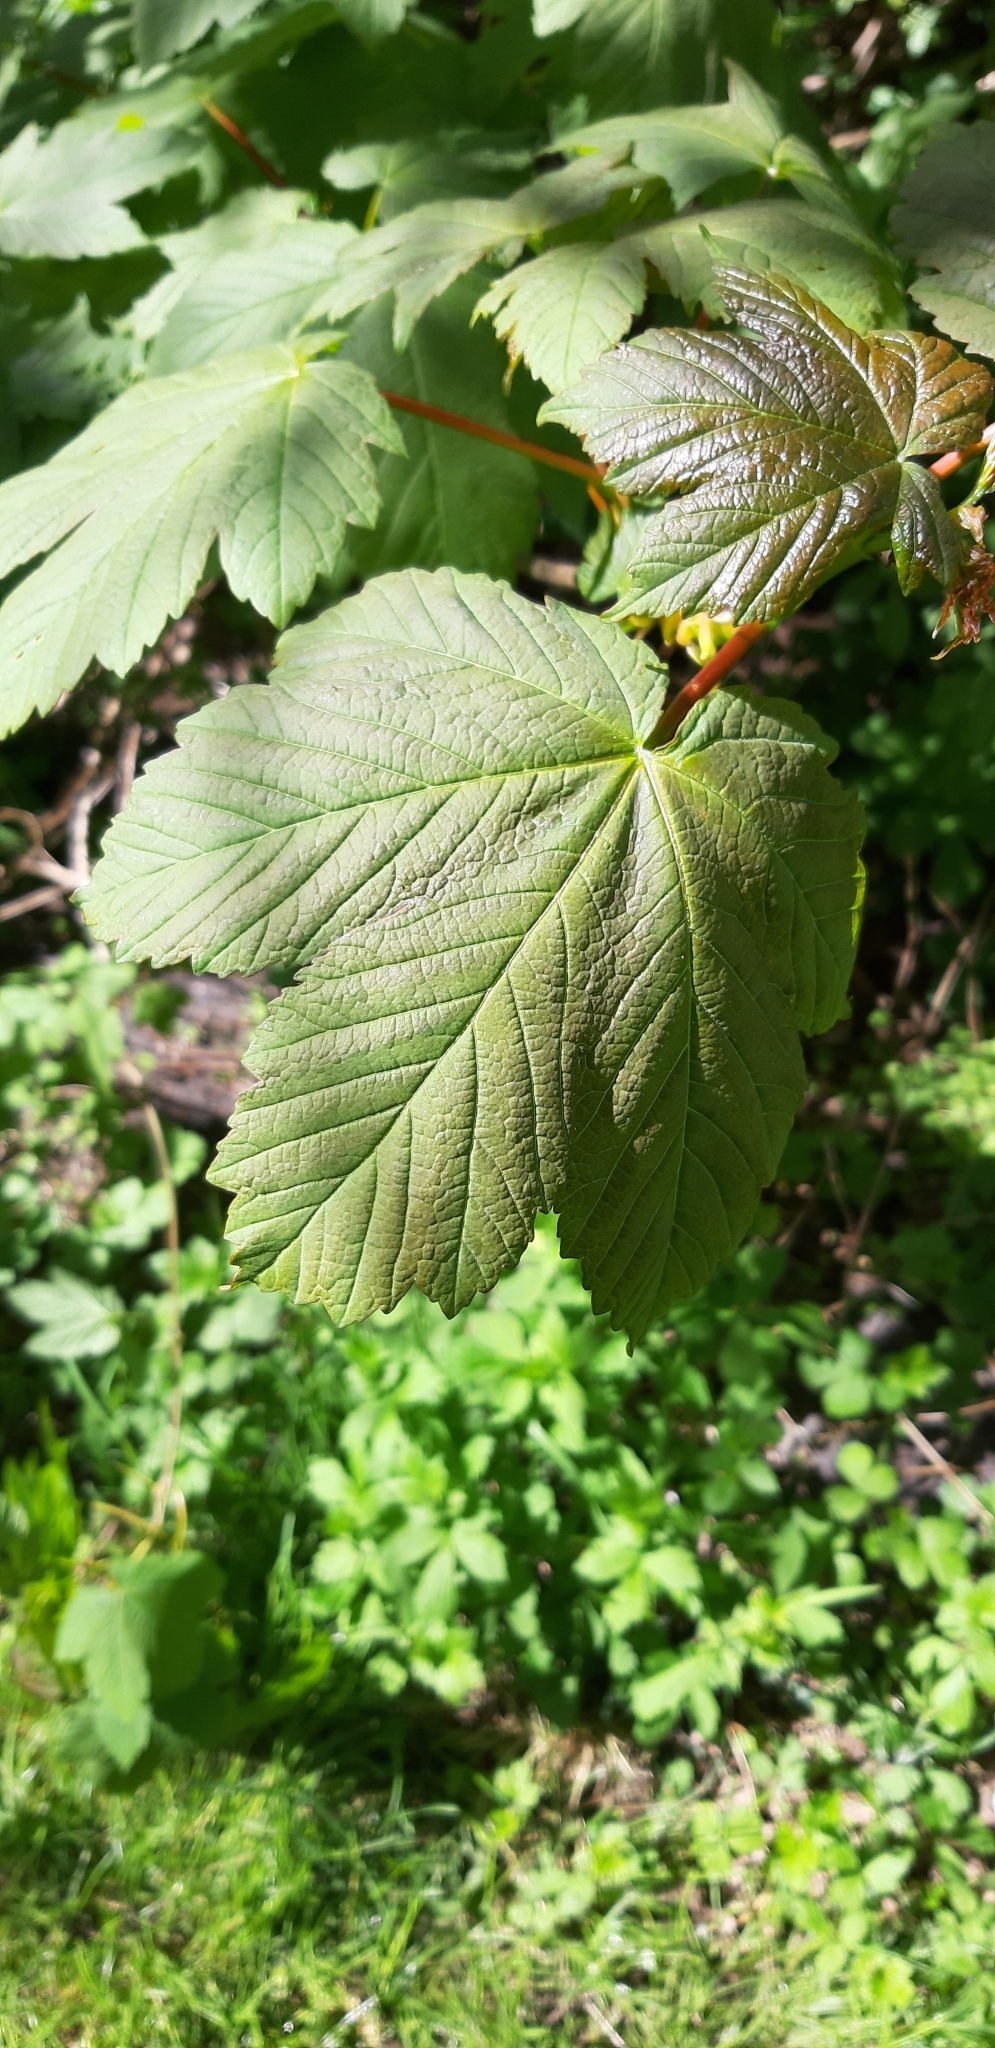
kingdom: Plantae
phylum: Tracheophyta
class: Magnoliopsida
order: Sapindales
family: Sapindaceae
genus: Acer
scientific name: Acer pseudoplatanus
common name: Sycamore
